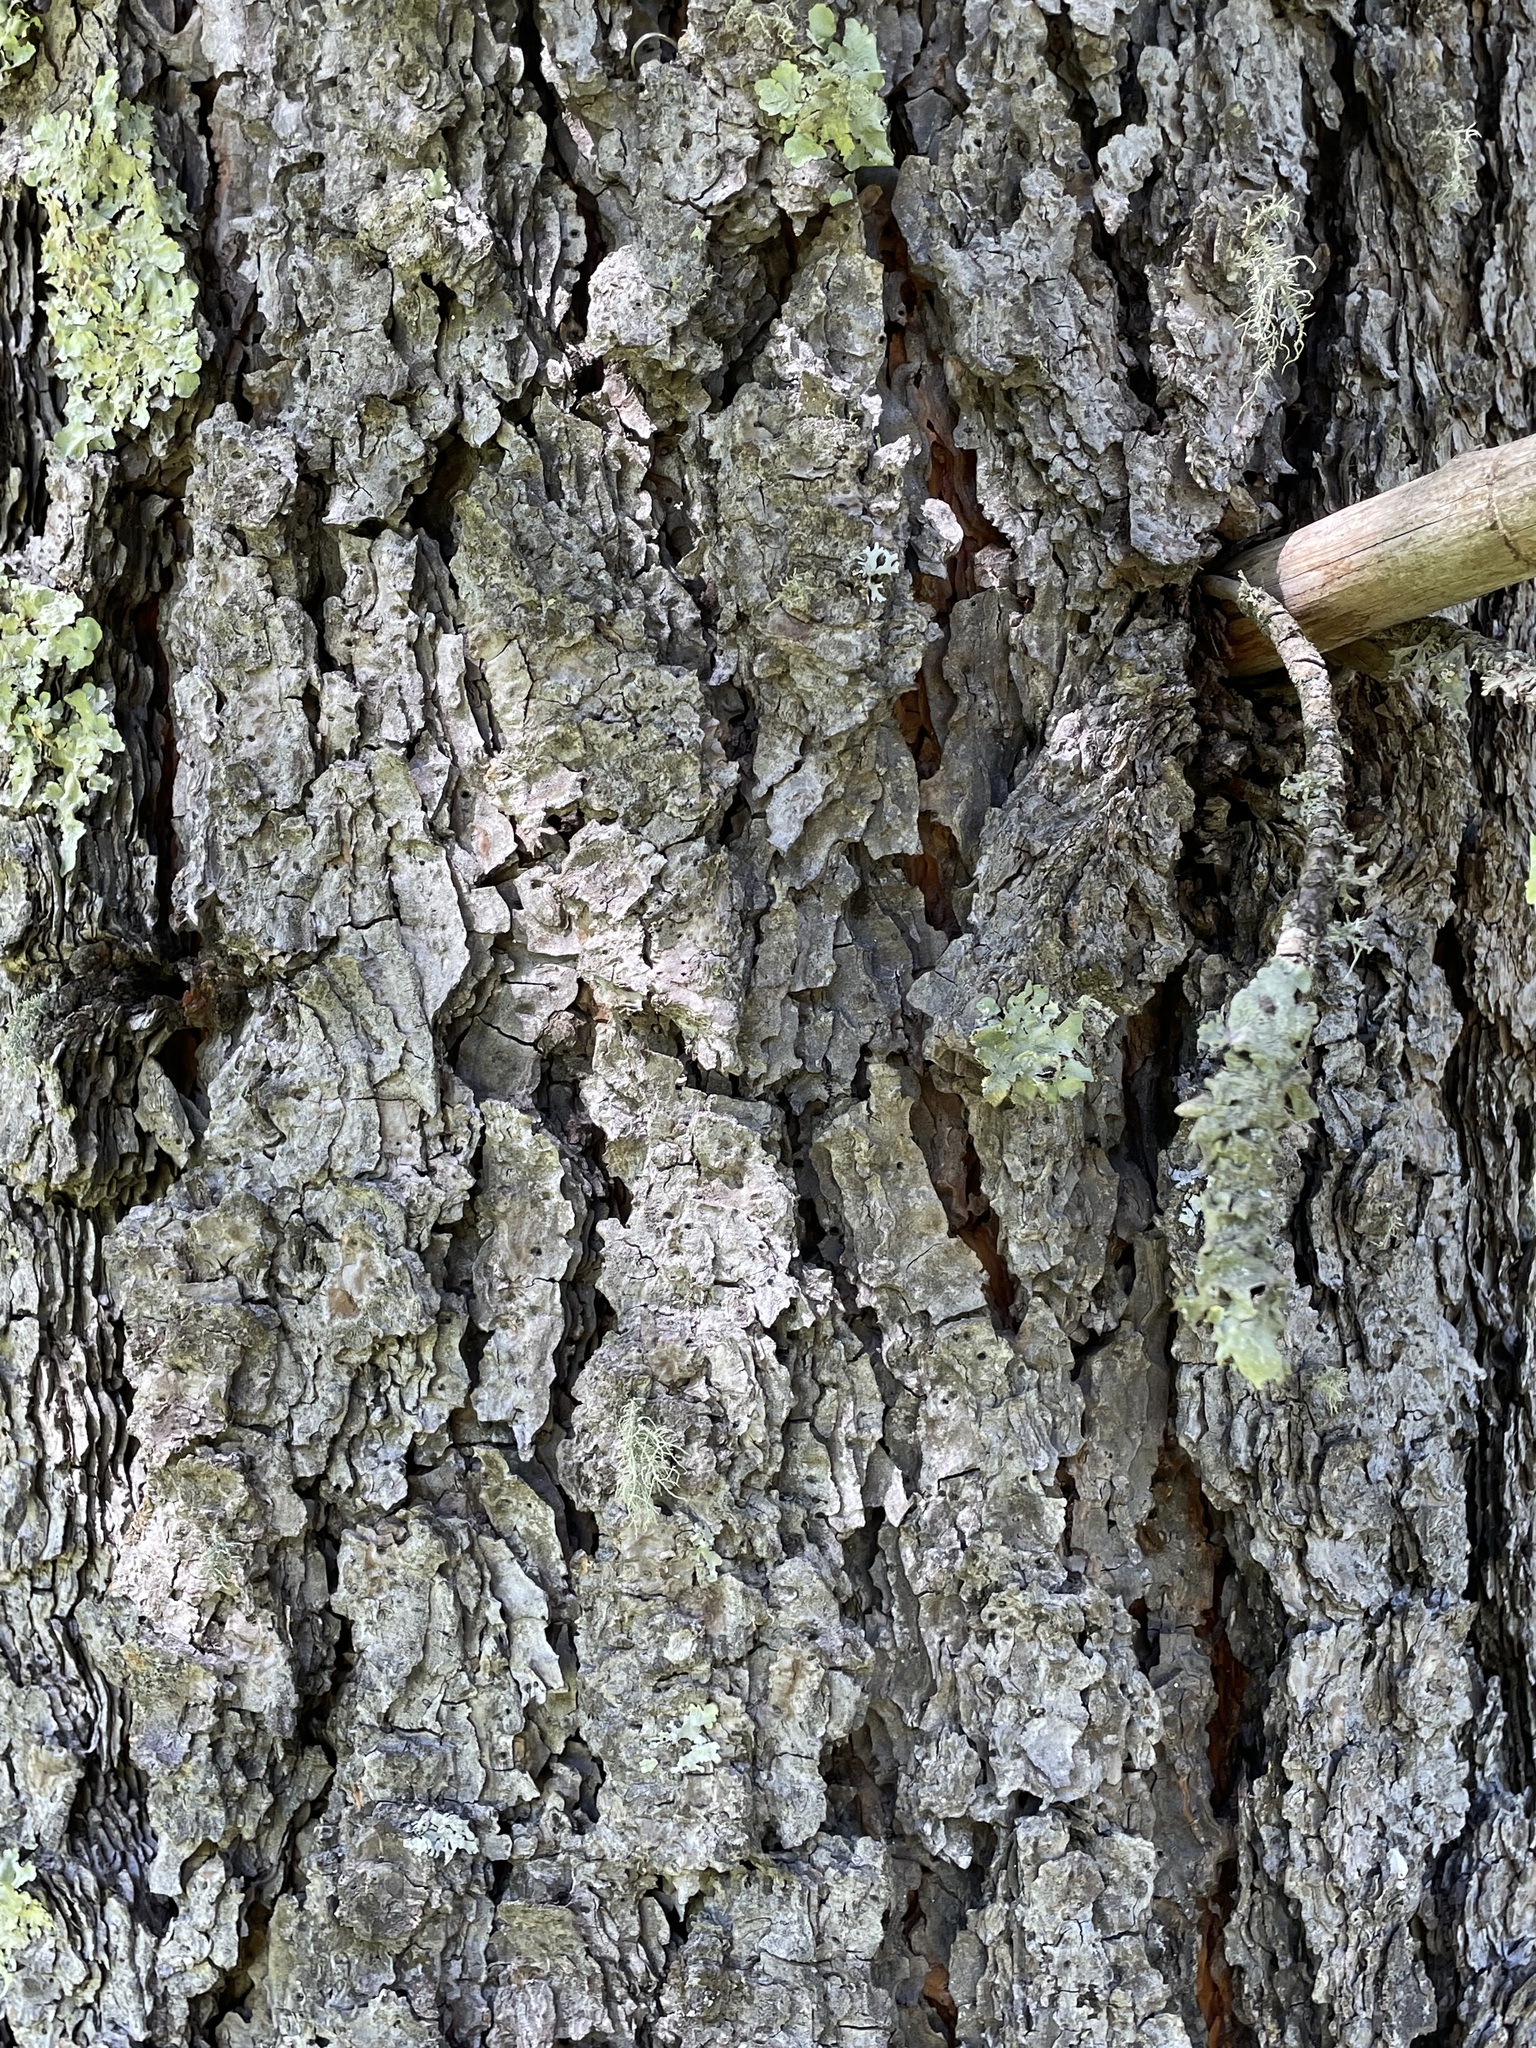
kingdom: Plantae
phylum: Tracheophyta
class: Pinopsida
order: Pinales
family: Pinaceae
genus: Pinus
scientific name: Pinus ponderosa
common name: Western yellow-pine
